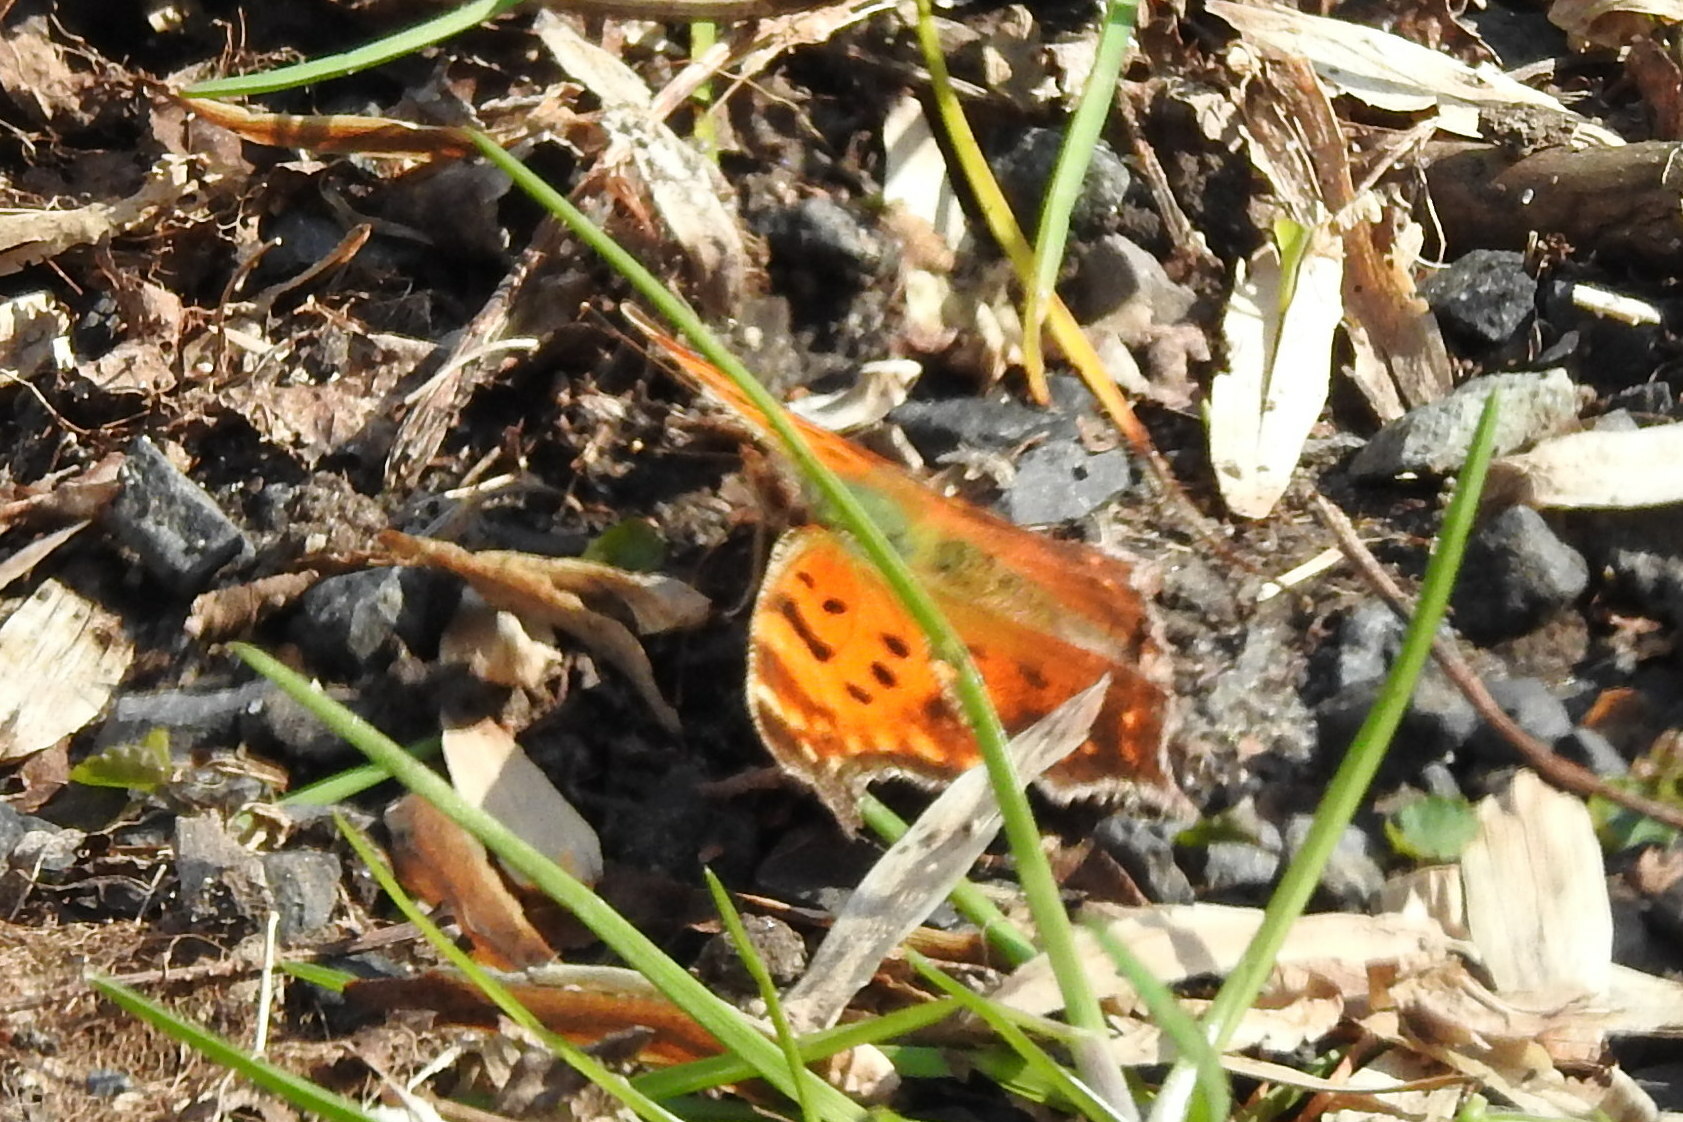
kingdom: Animalia
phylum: Arthropoda
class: Insecta
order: Lepidoptera
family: Nymphalidae
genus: Polygonia
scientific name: Polygonia comma
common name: Eastern comma
